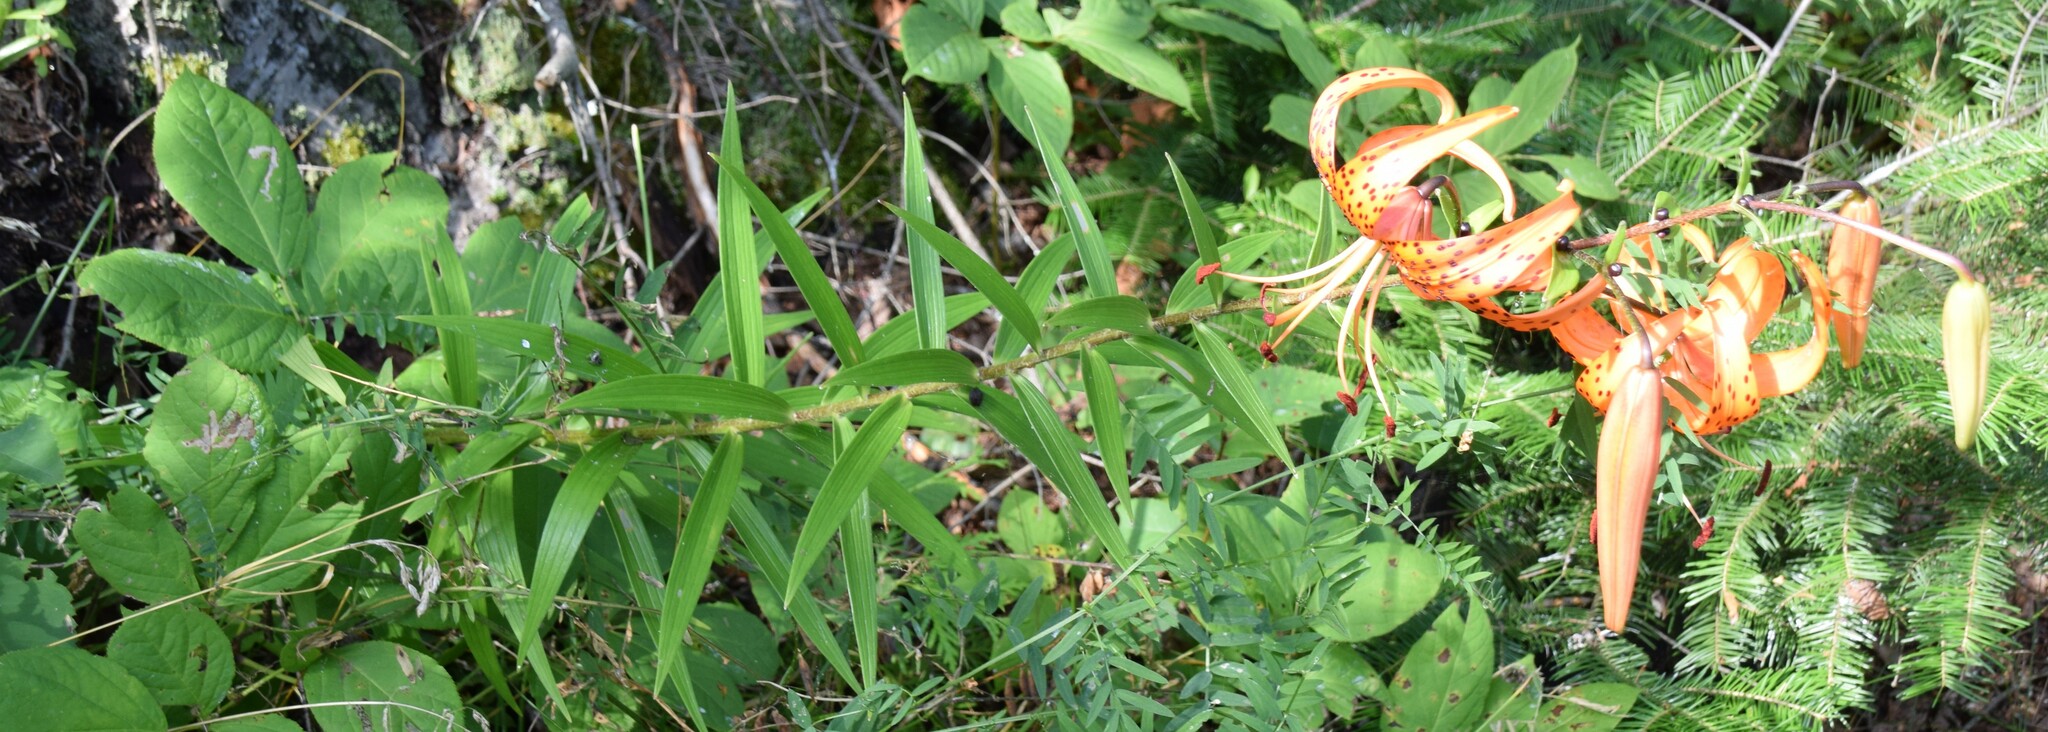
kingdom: Plantae
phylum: Tracheophyta
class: Liliopsida
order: Liliales
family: Liliaceae
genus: Lilium
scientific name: Lilium lancifolium
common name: Tiger lily
